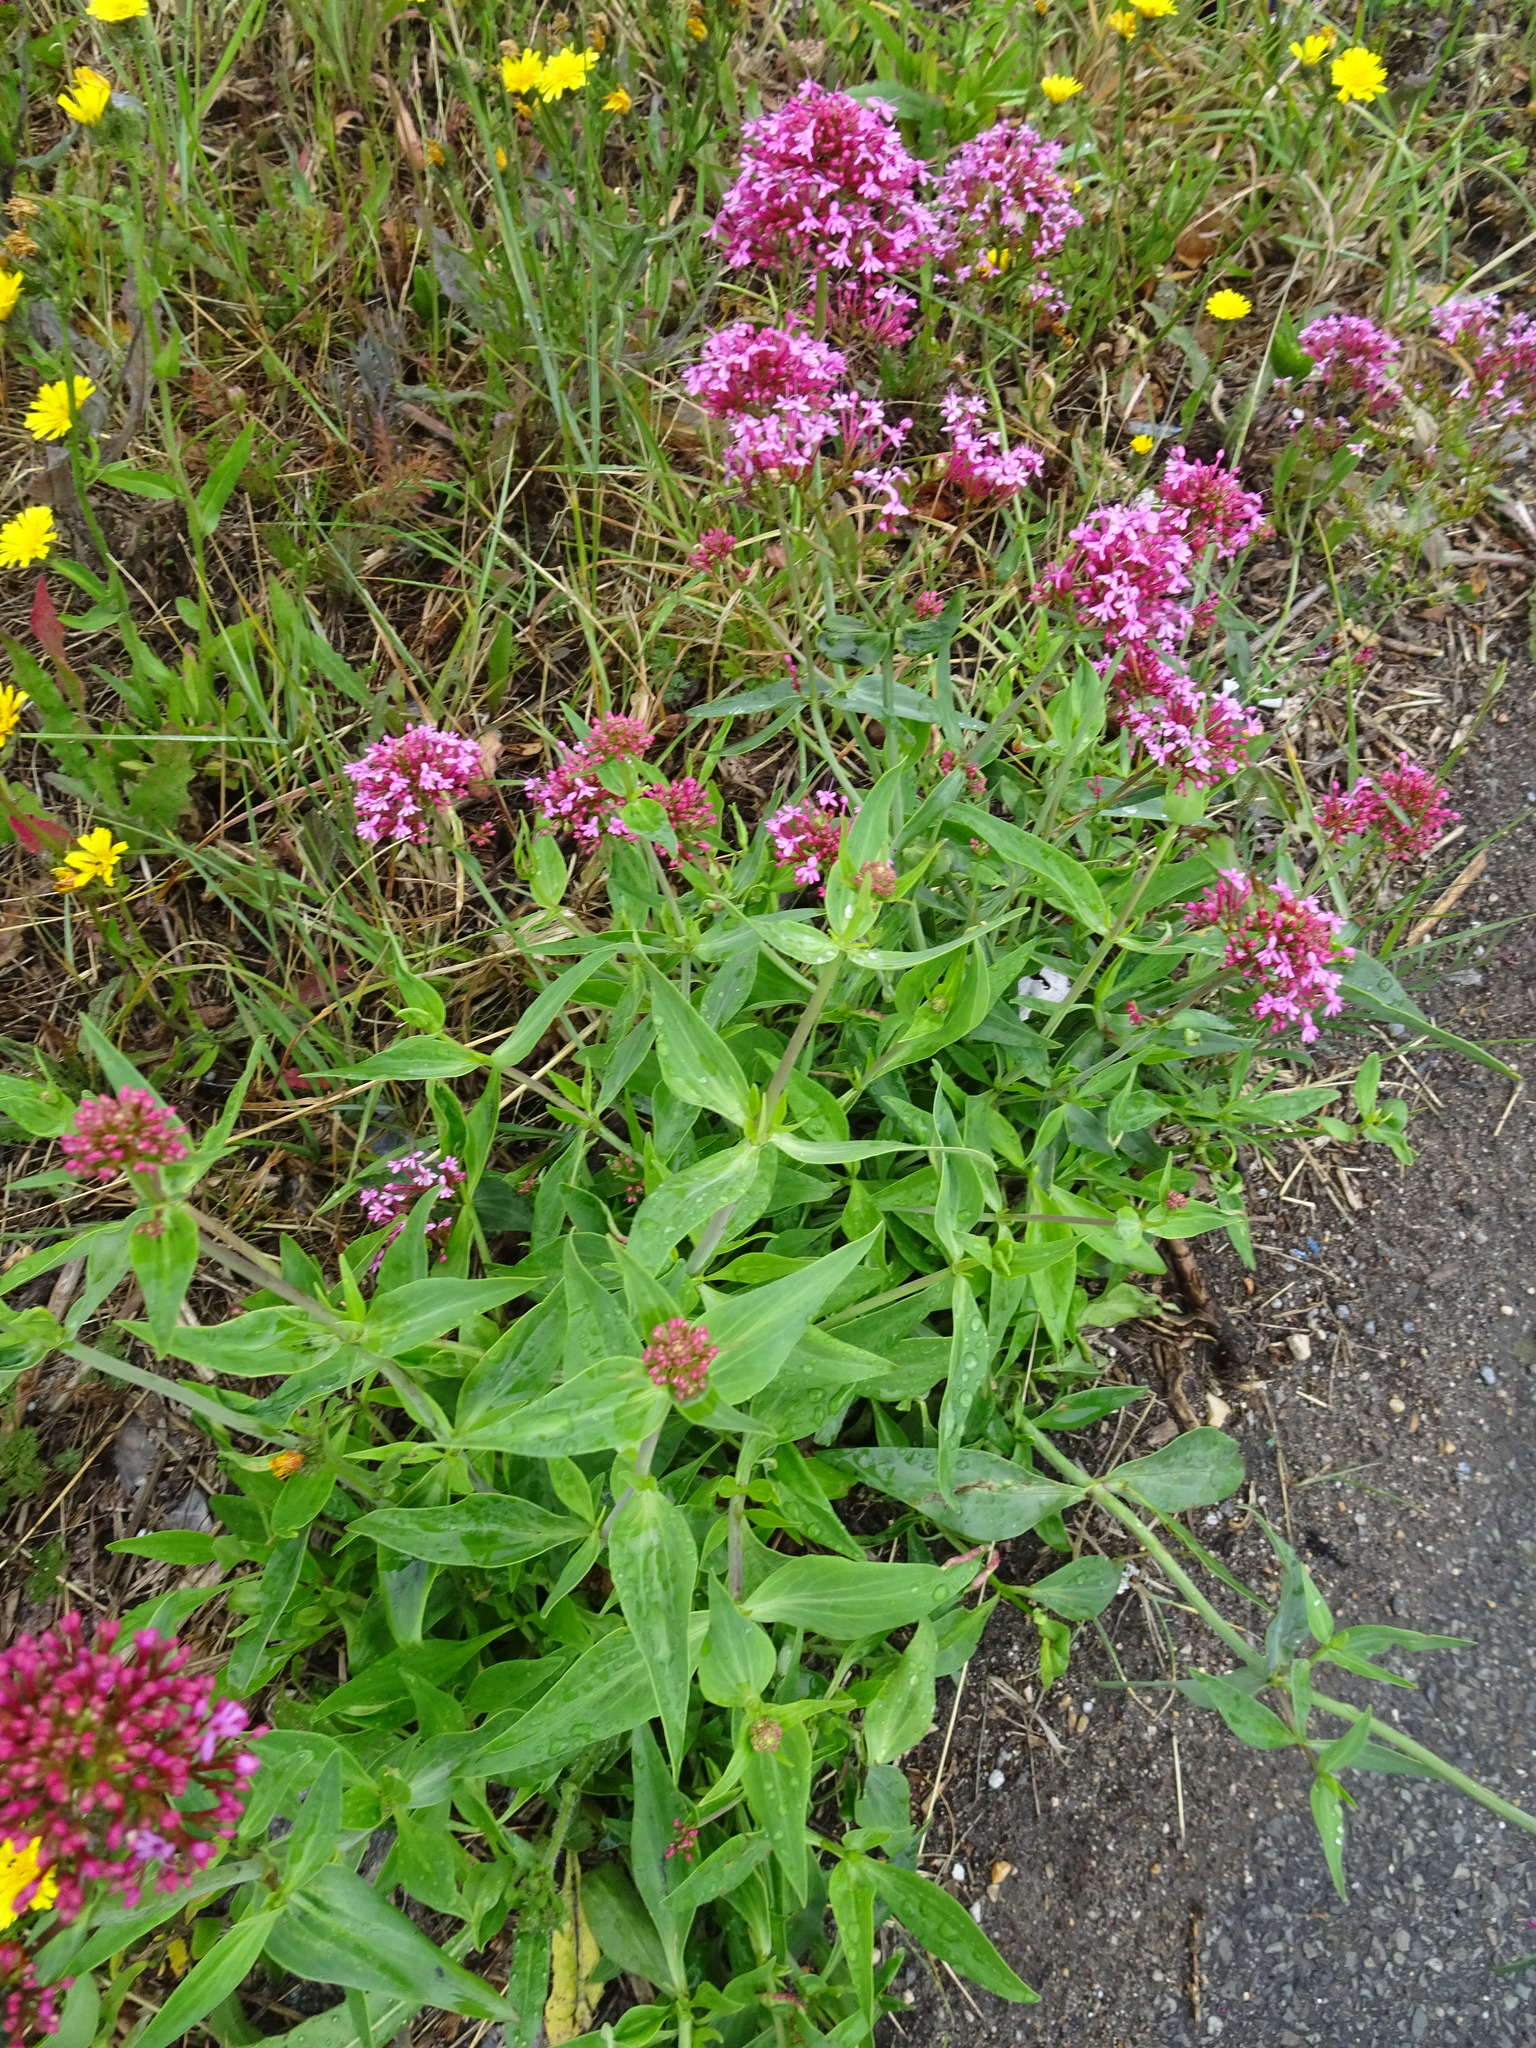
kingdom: Plantae
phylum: Tracheophyta
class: Magnoliopsida
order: Dipsacales
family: Caprifoliaceae
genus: Centranthus
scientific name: Centranthus ruber
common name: Red valerian
